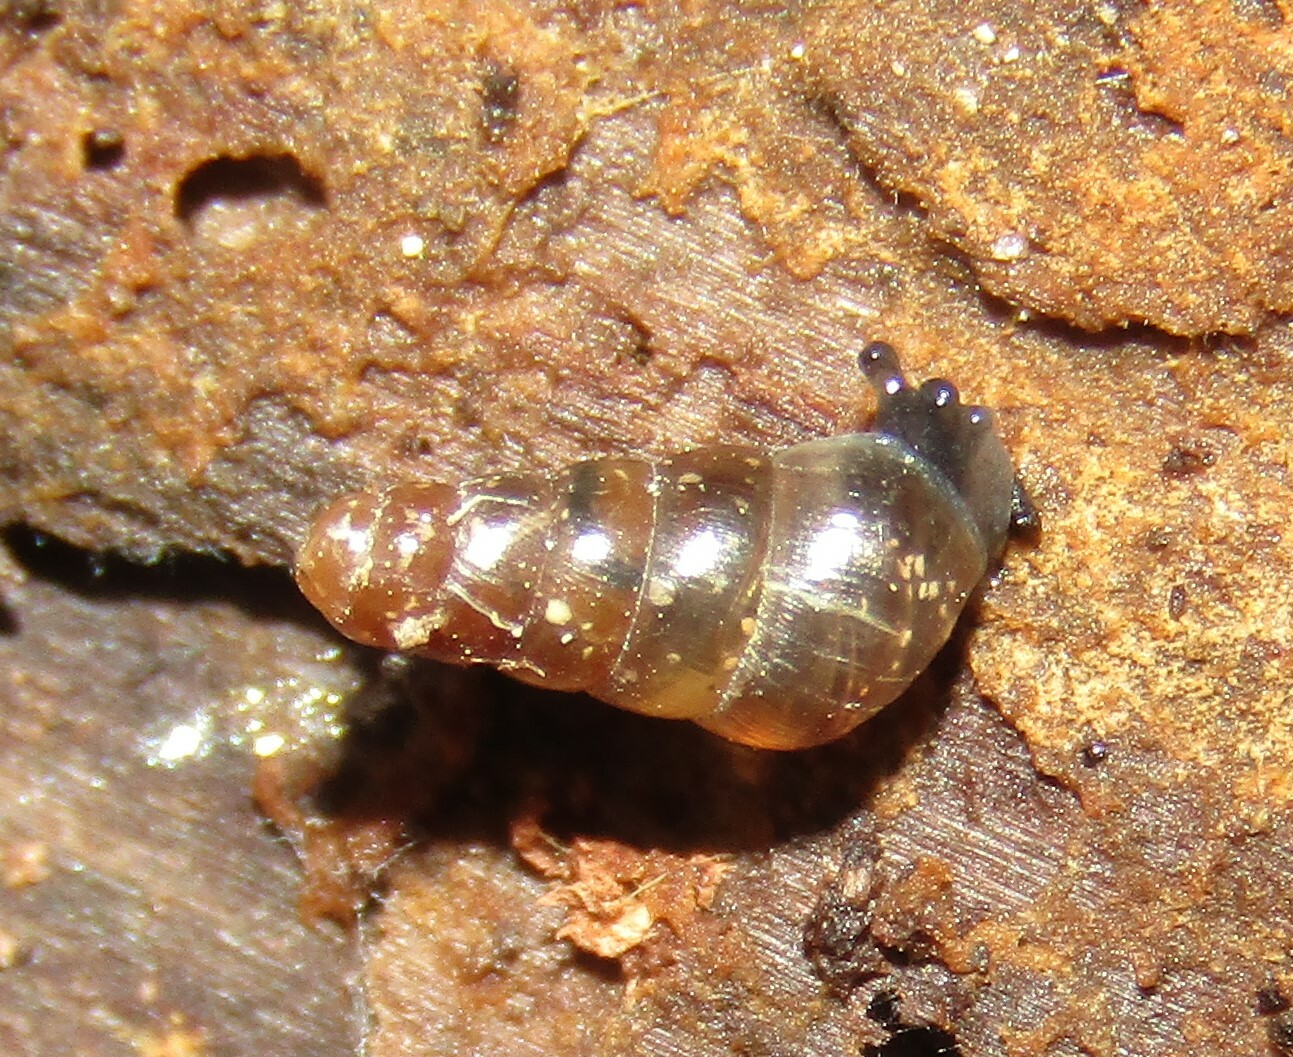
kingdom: Animalia
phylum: Mollusca
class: Gastropoda
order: Stylommatophora
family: Clausiliidae
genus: Cochlodina
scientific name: Cochlodina laminata
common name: Plaited door snail
